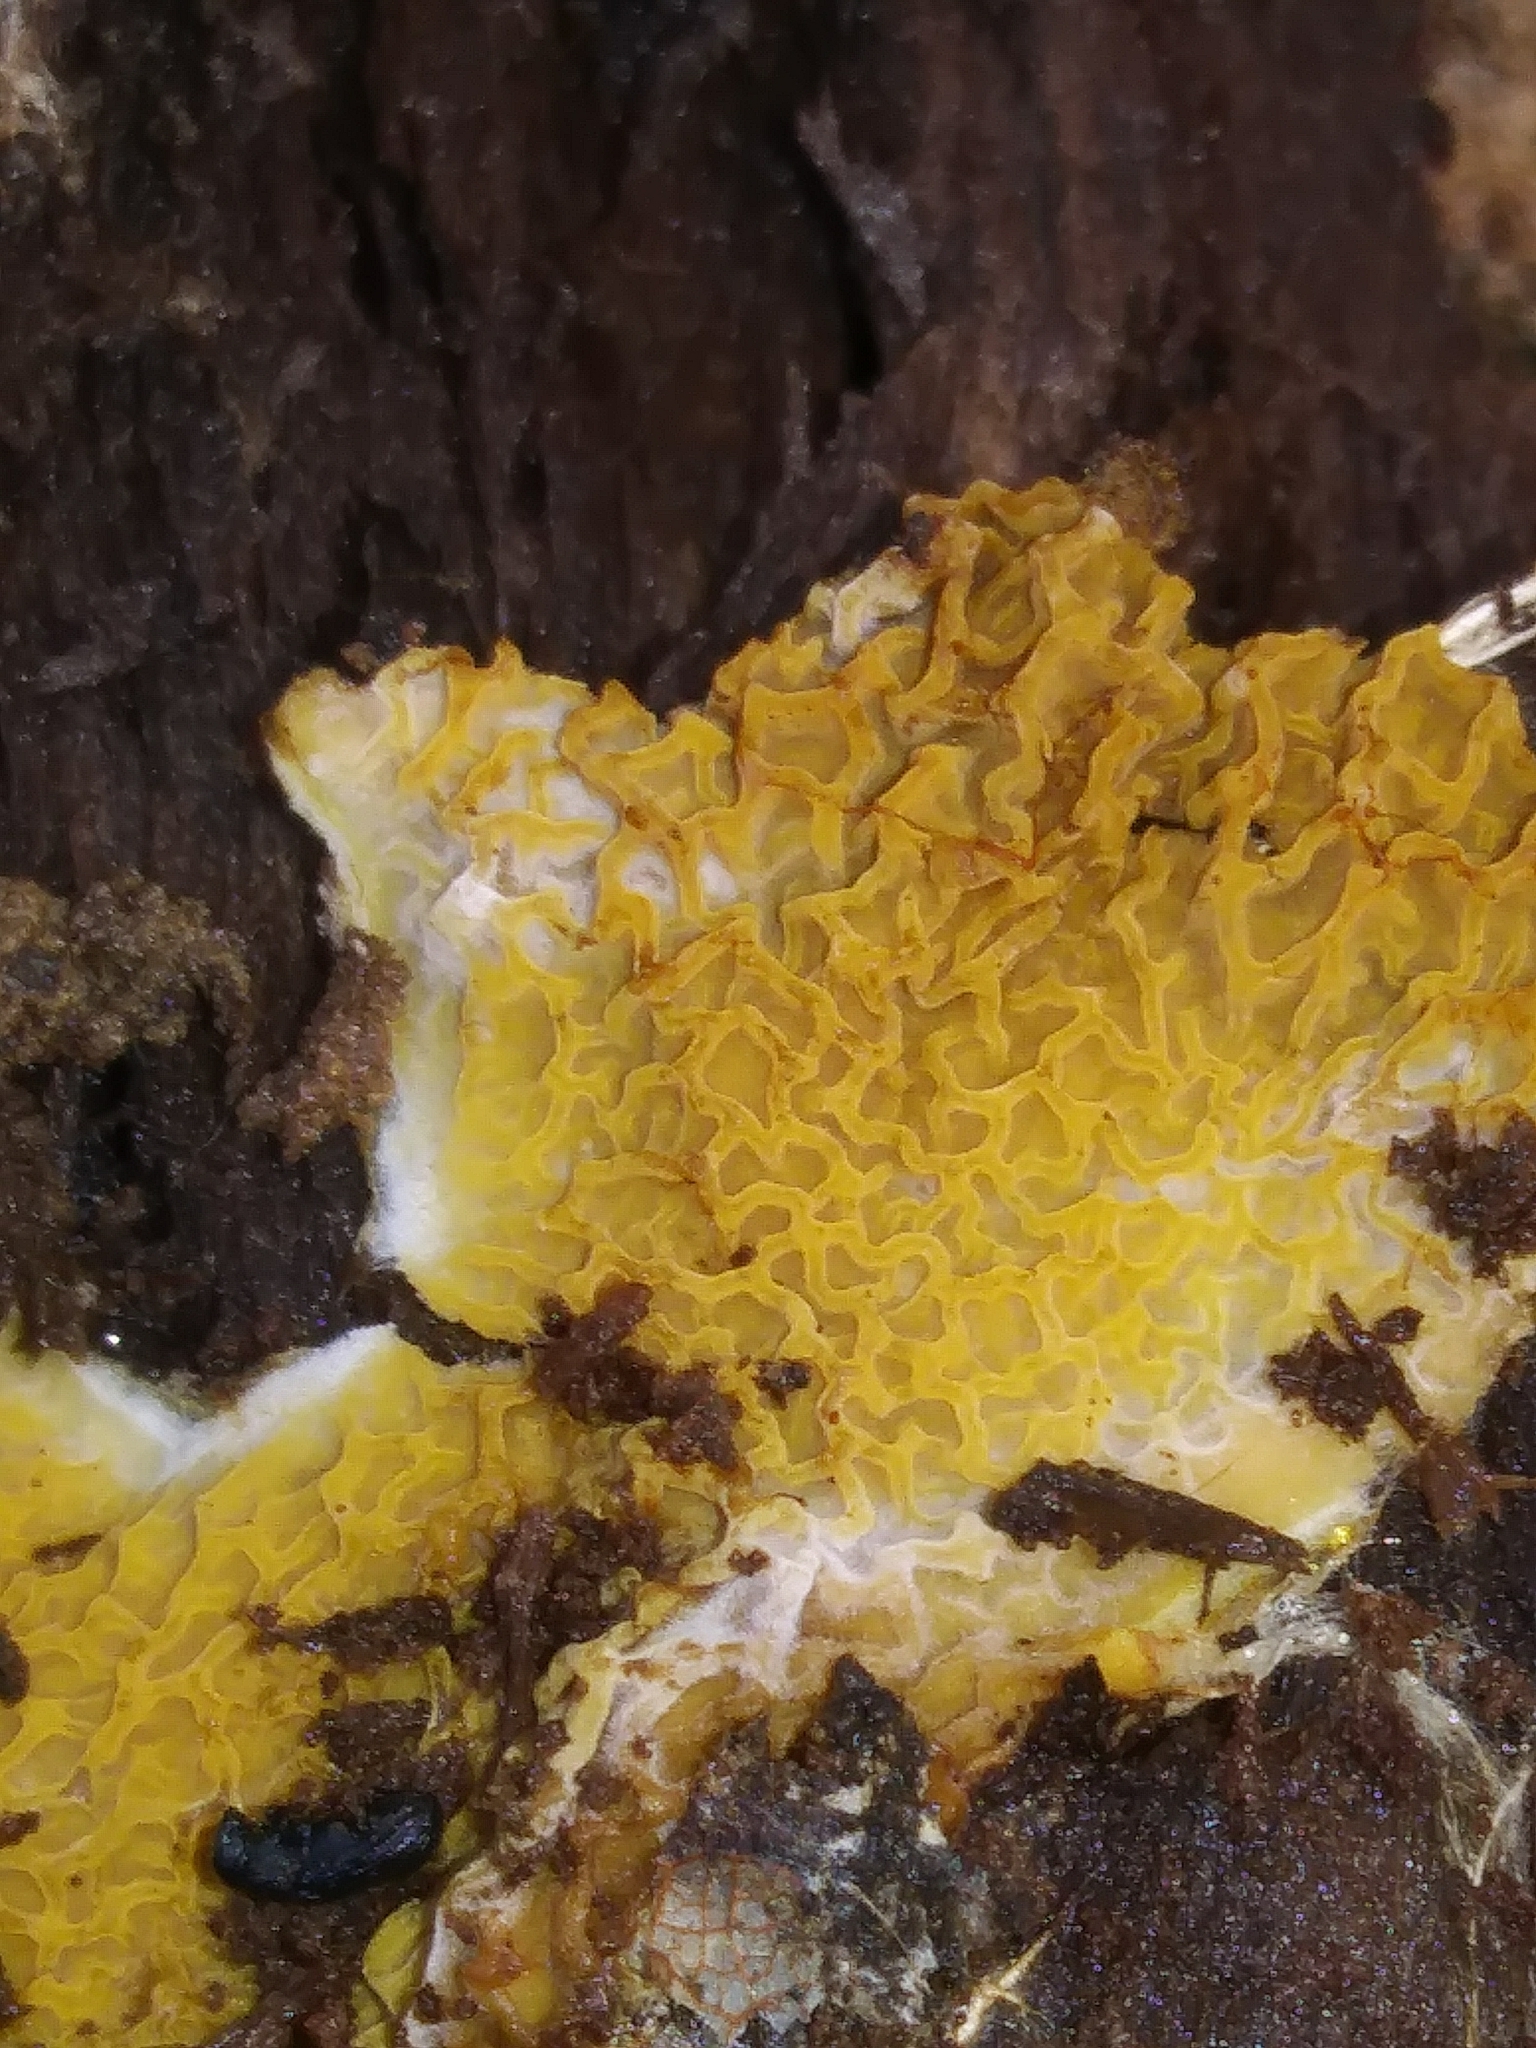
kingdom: Fungi
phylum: Basidiomycota
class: Agaricomycetes
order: Boletales
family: Serpulaceae
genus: Serpula
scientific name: Serpula himantioides
